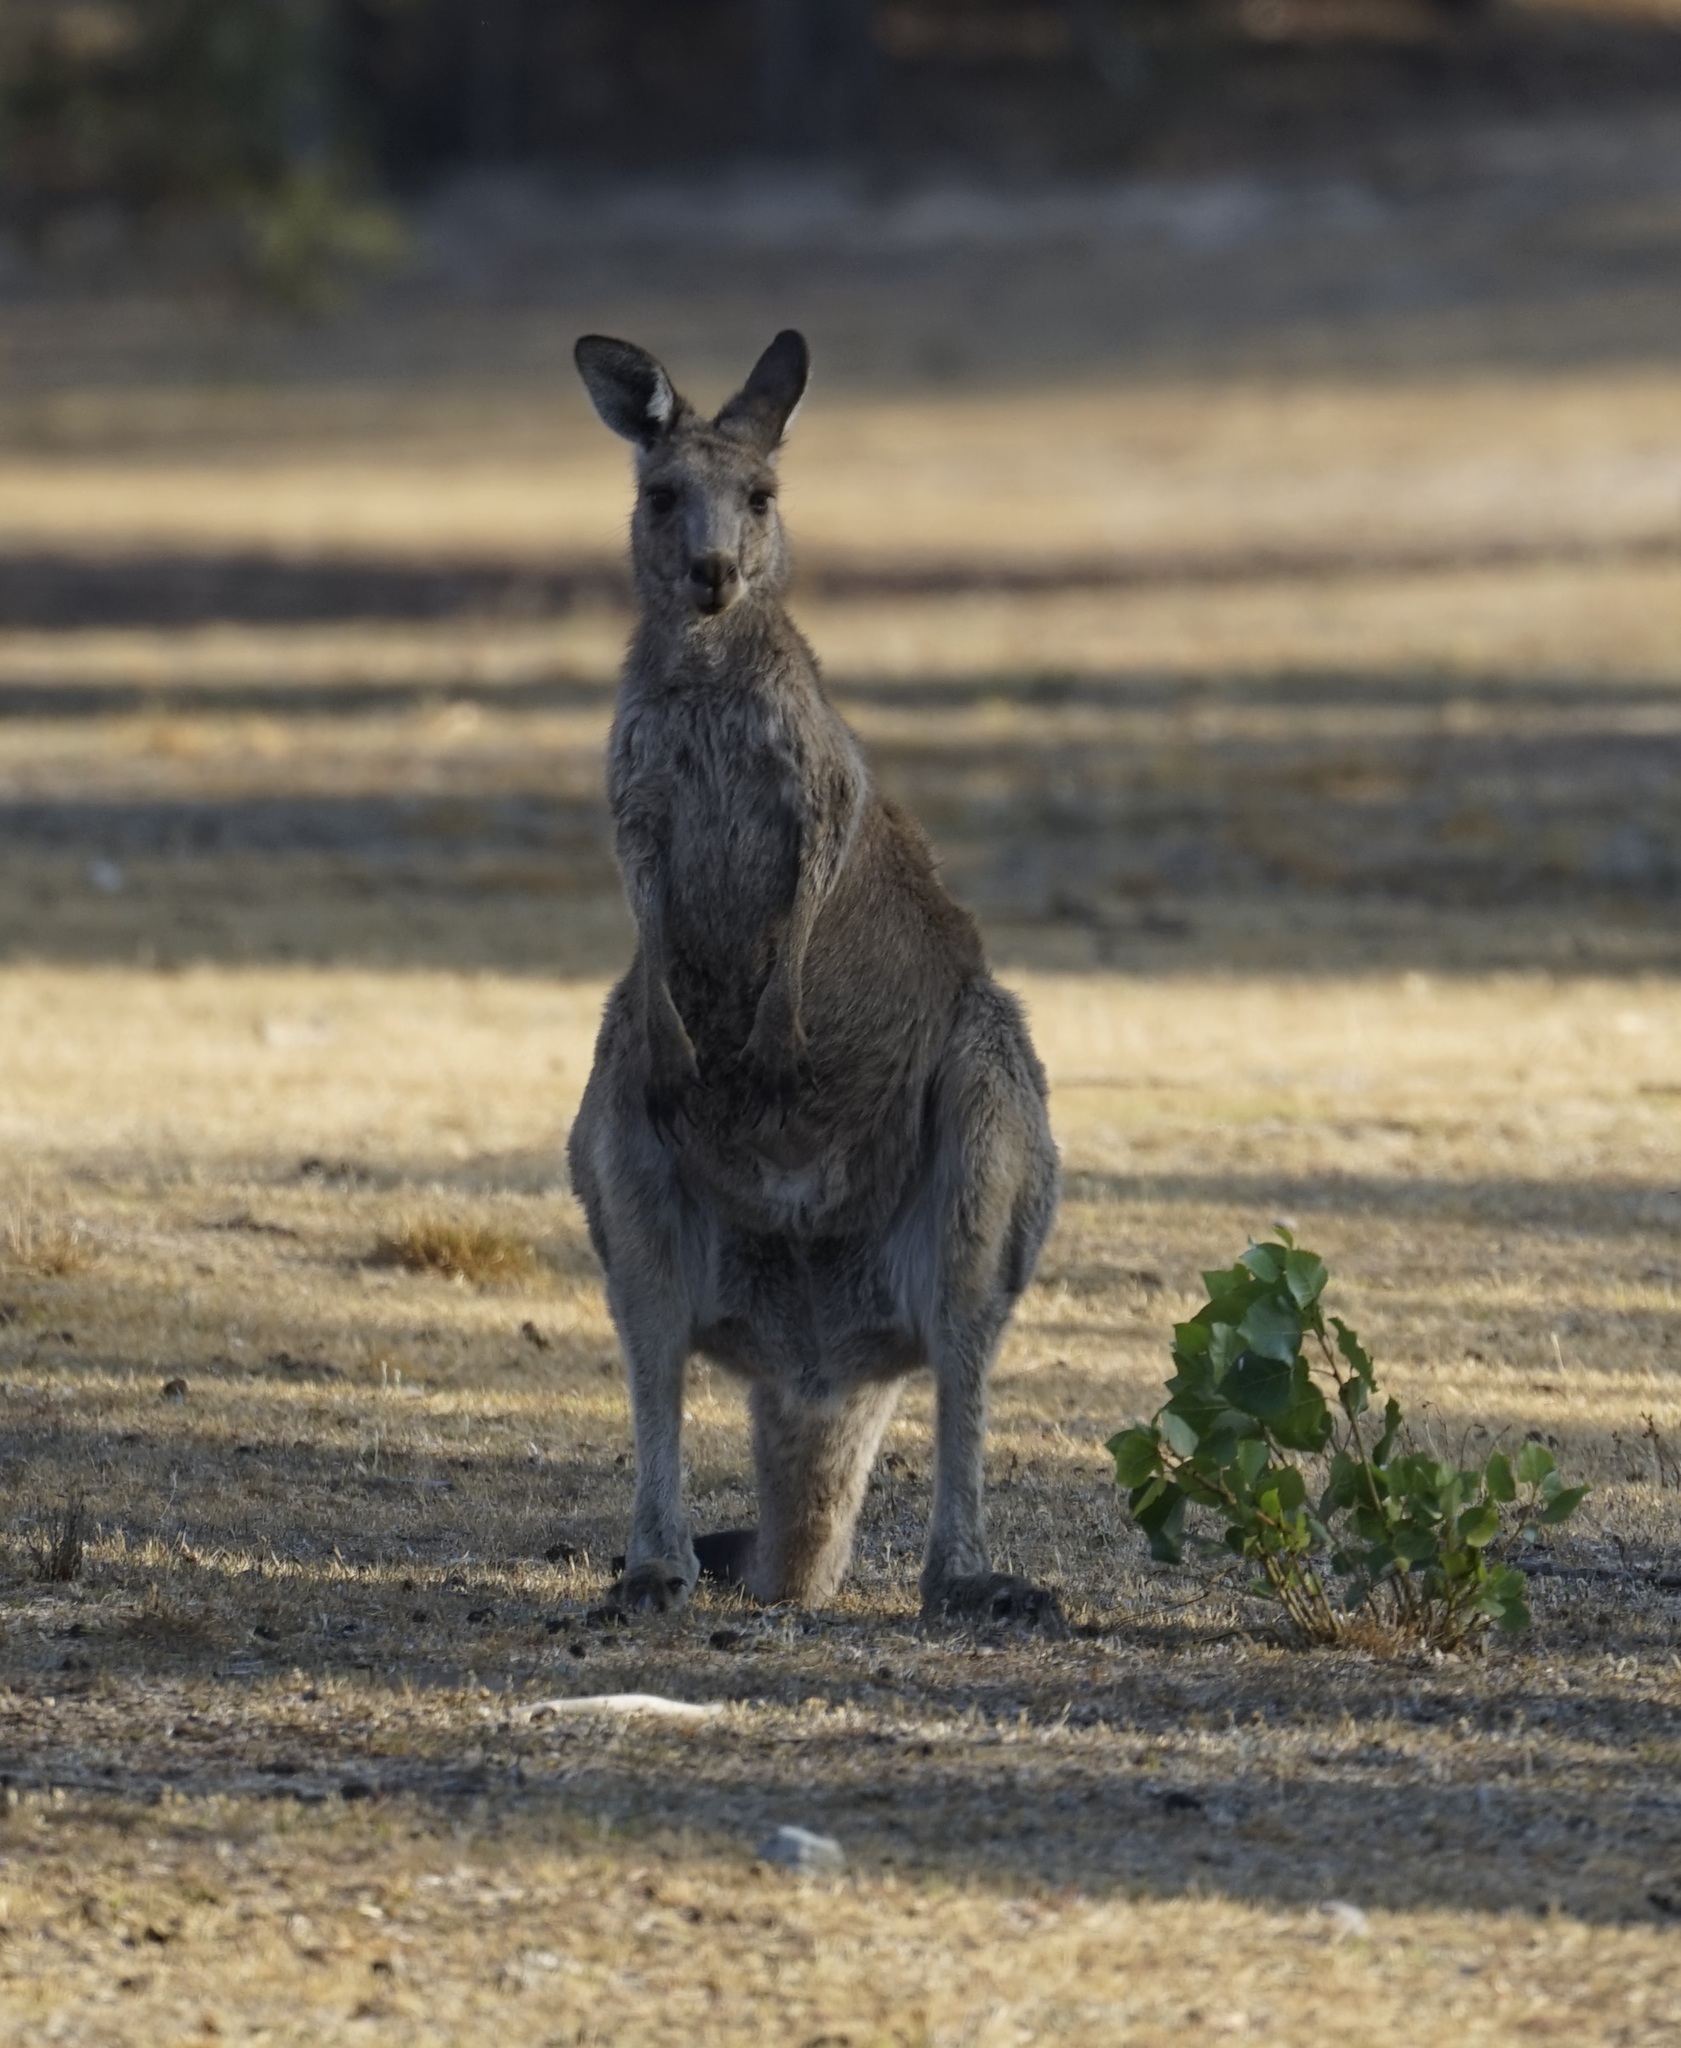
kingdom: Animalia
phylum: Chordata
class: Mammalia
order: Diprotodontia
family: Macropodidae
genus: Macropus
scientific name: Macropus giganteus
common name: Eastern grey kangaroo
